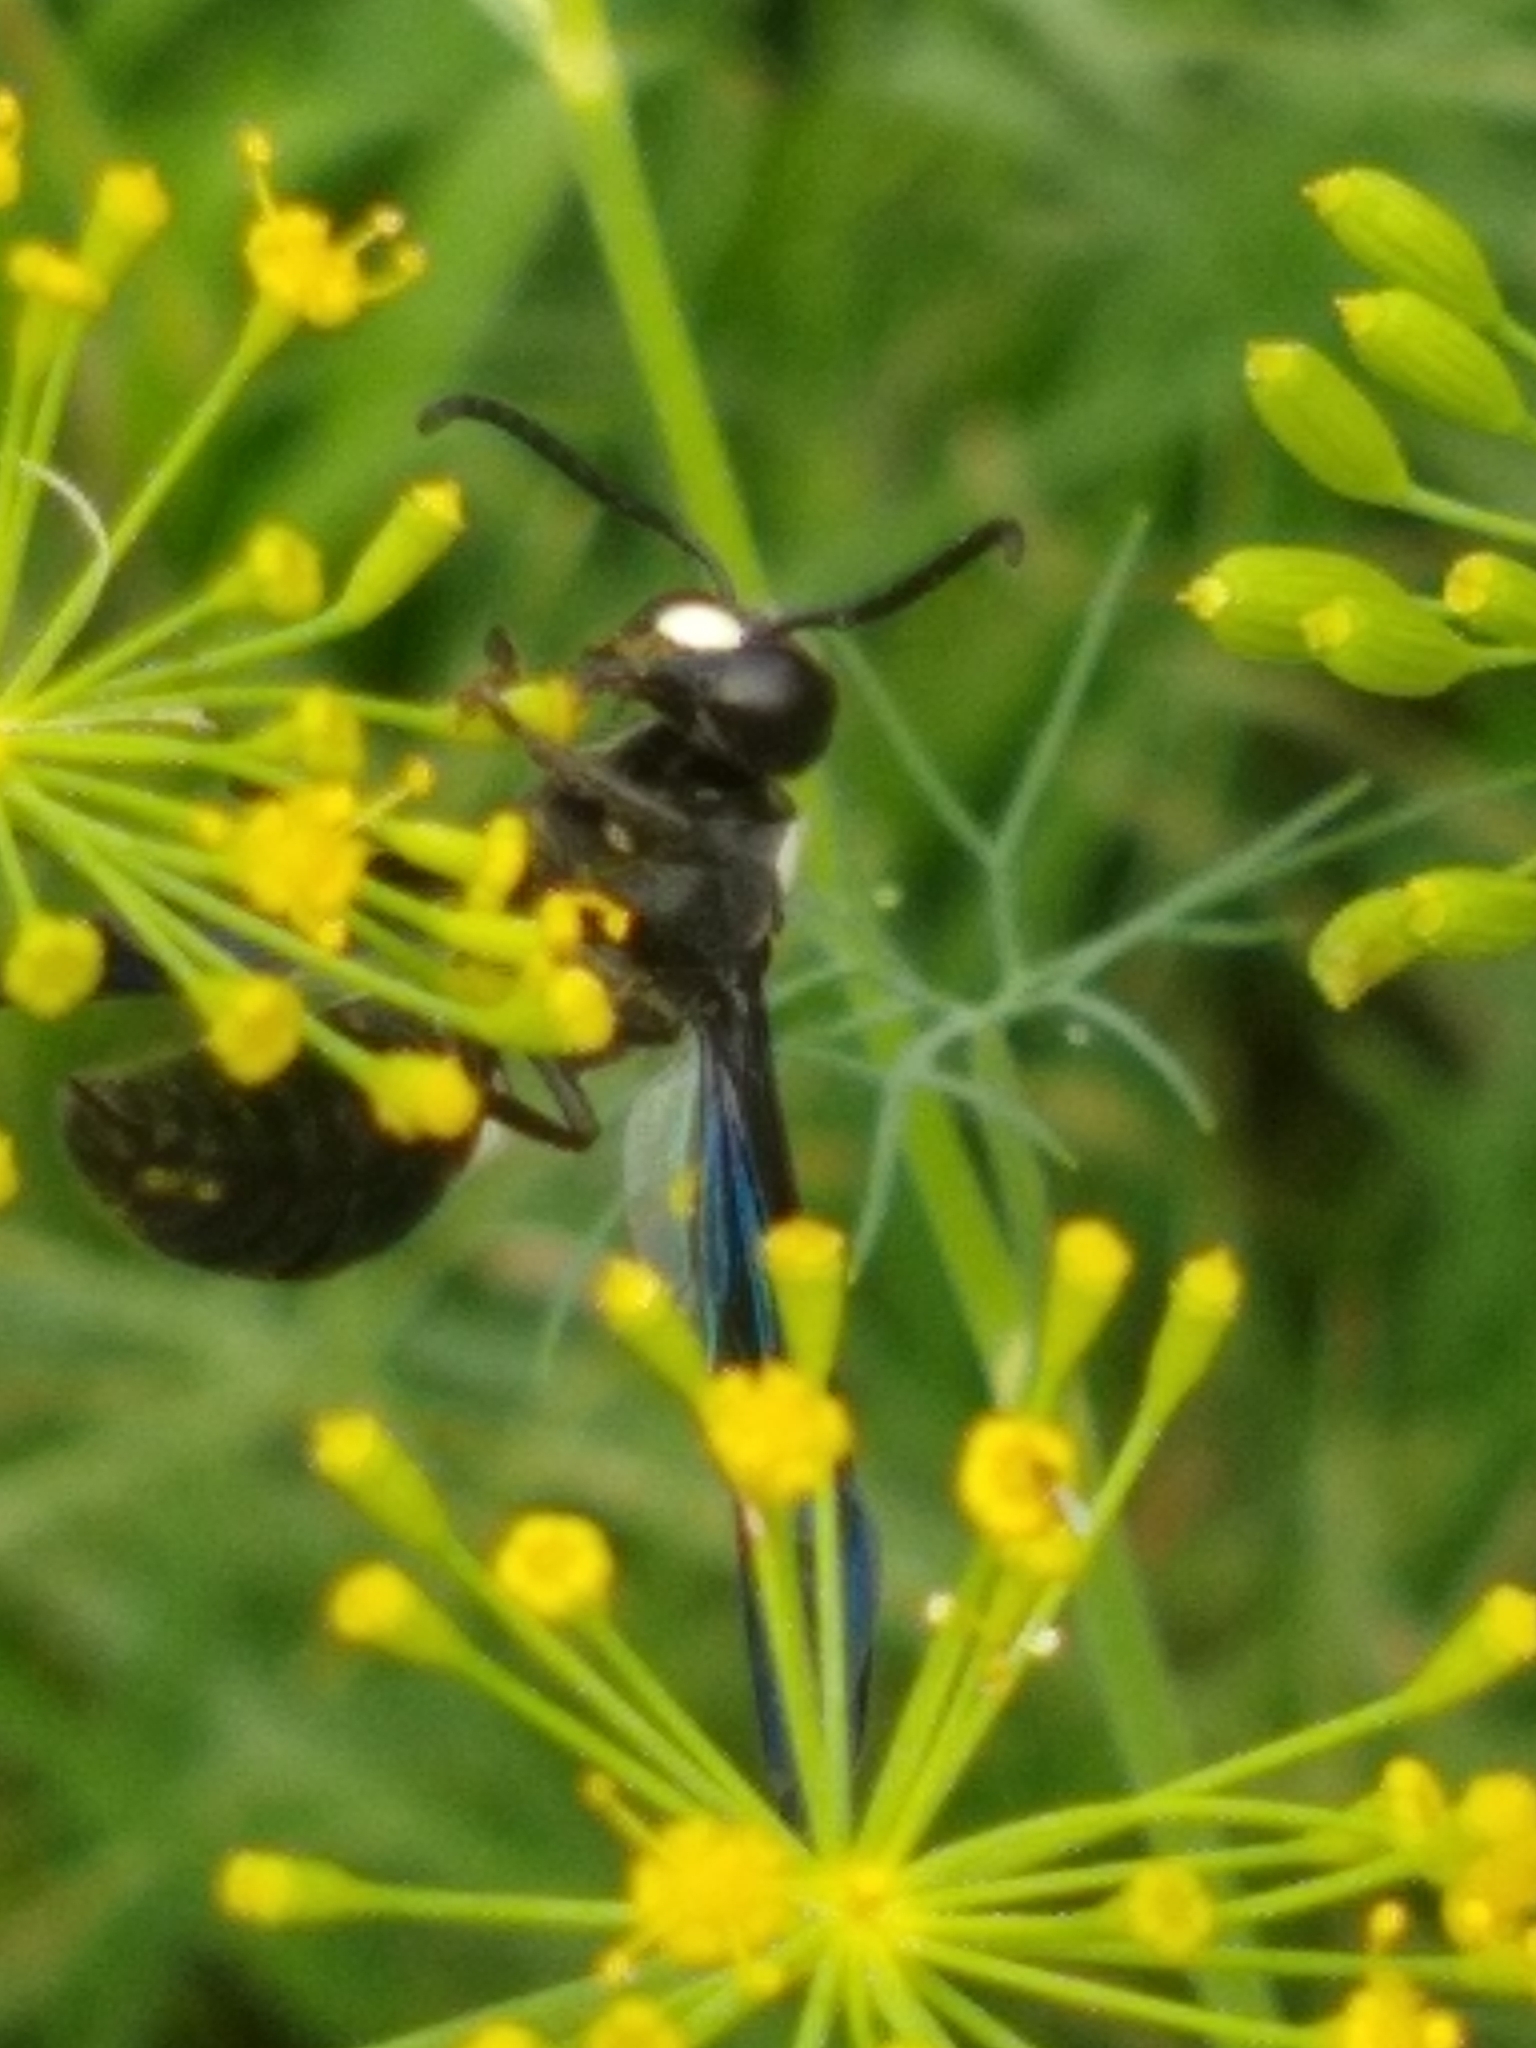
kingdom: Animalia
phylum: Arthropoda
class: Insecta
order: Hymenoptera
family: Eumenidae
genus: Monobia
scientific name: Monobia quadridens
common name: Four-toothed mason wasp
